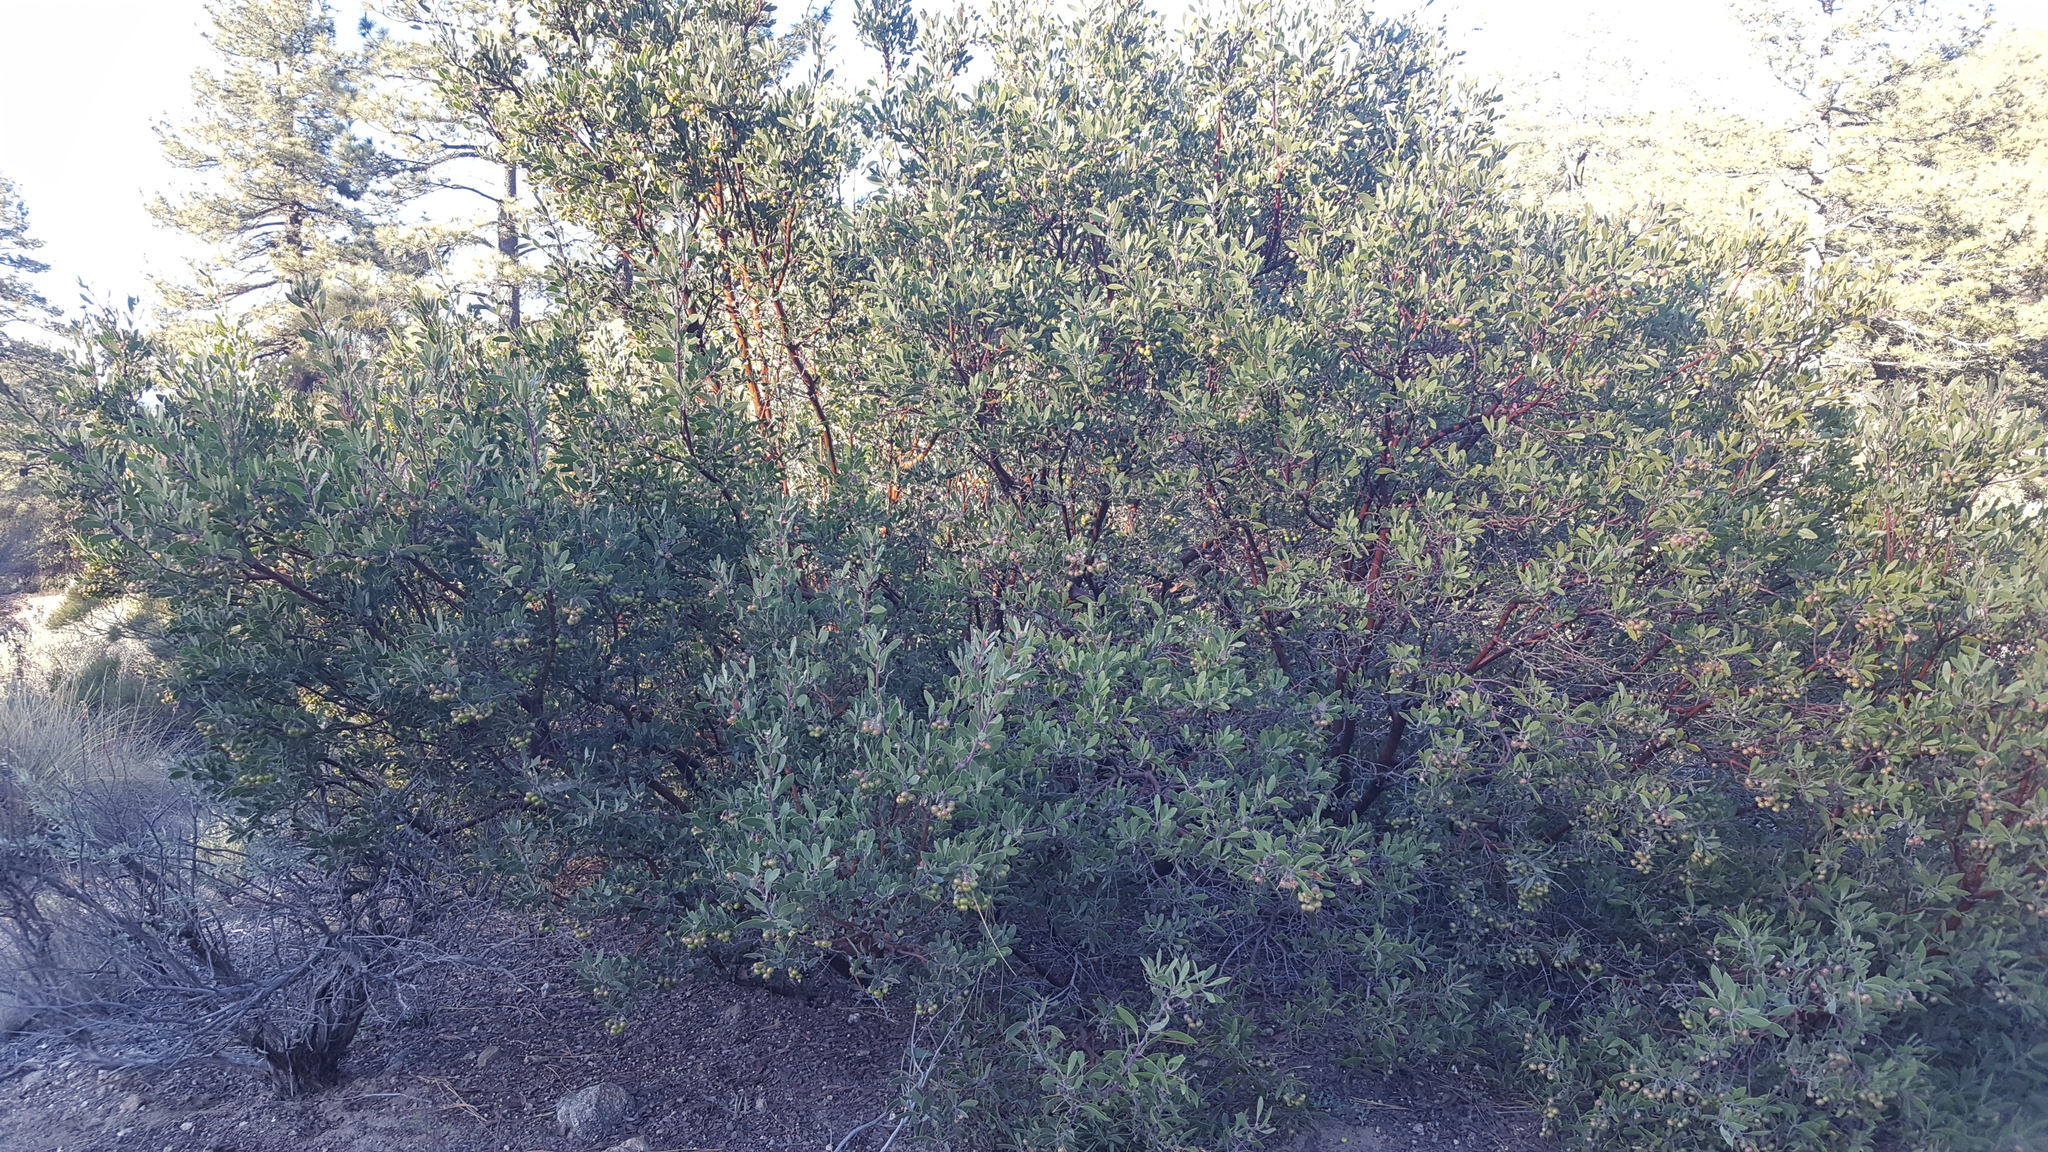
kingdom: Plantae
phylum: Tracheophyta
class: Magnoliopsida
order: Ericales
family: Ericaceae
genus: Arctostaphylos
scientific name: Arctostaphylos pungens
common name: Mexican manzanita
